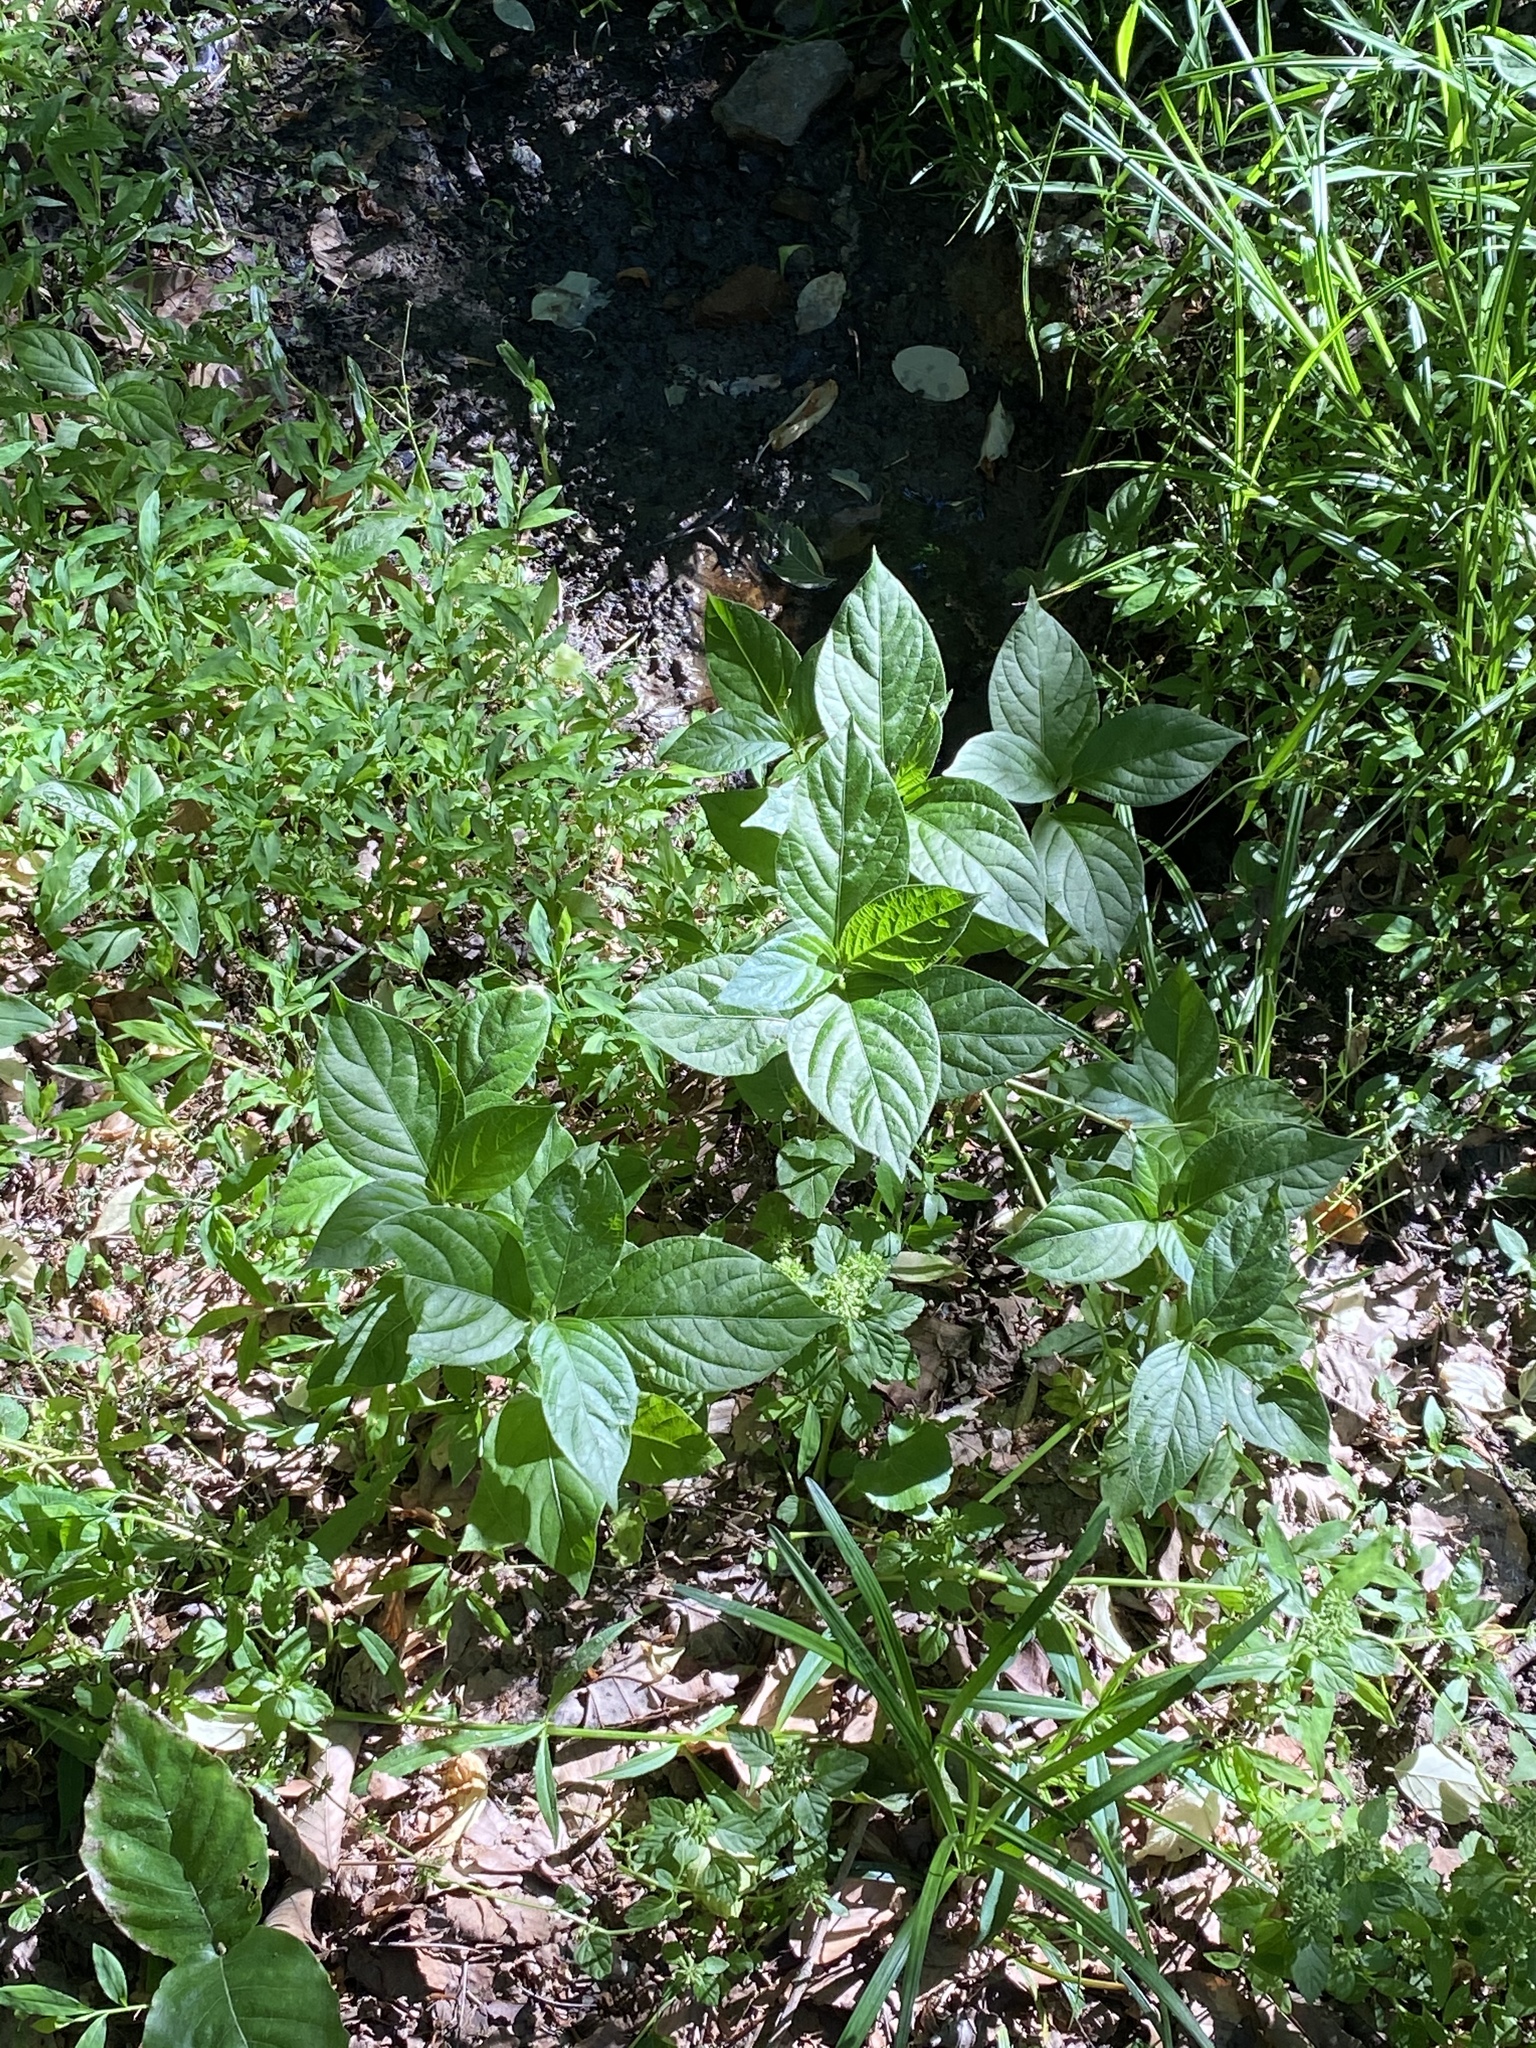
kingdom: Plantae
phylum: Tracheophyta
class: Magnoliopsida
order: Caryophyllales
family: Amaranthaceae
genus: Achyranthes
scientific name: Achyranthes bidentata
